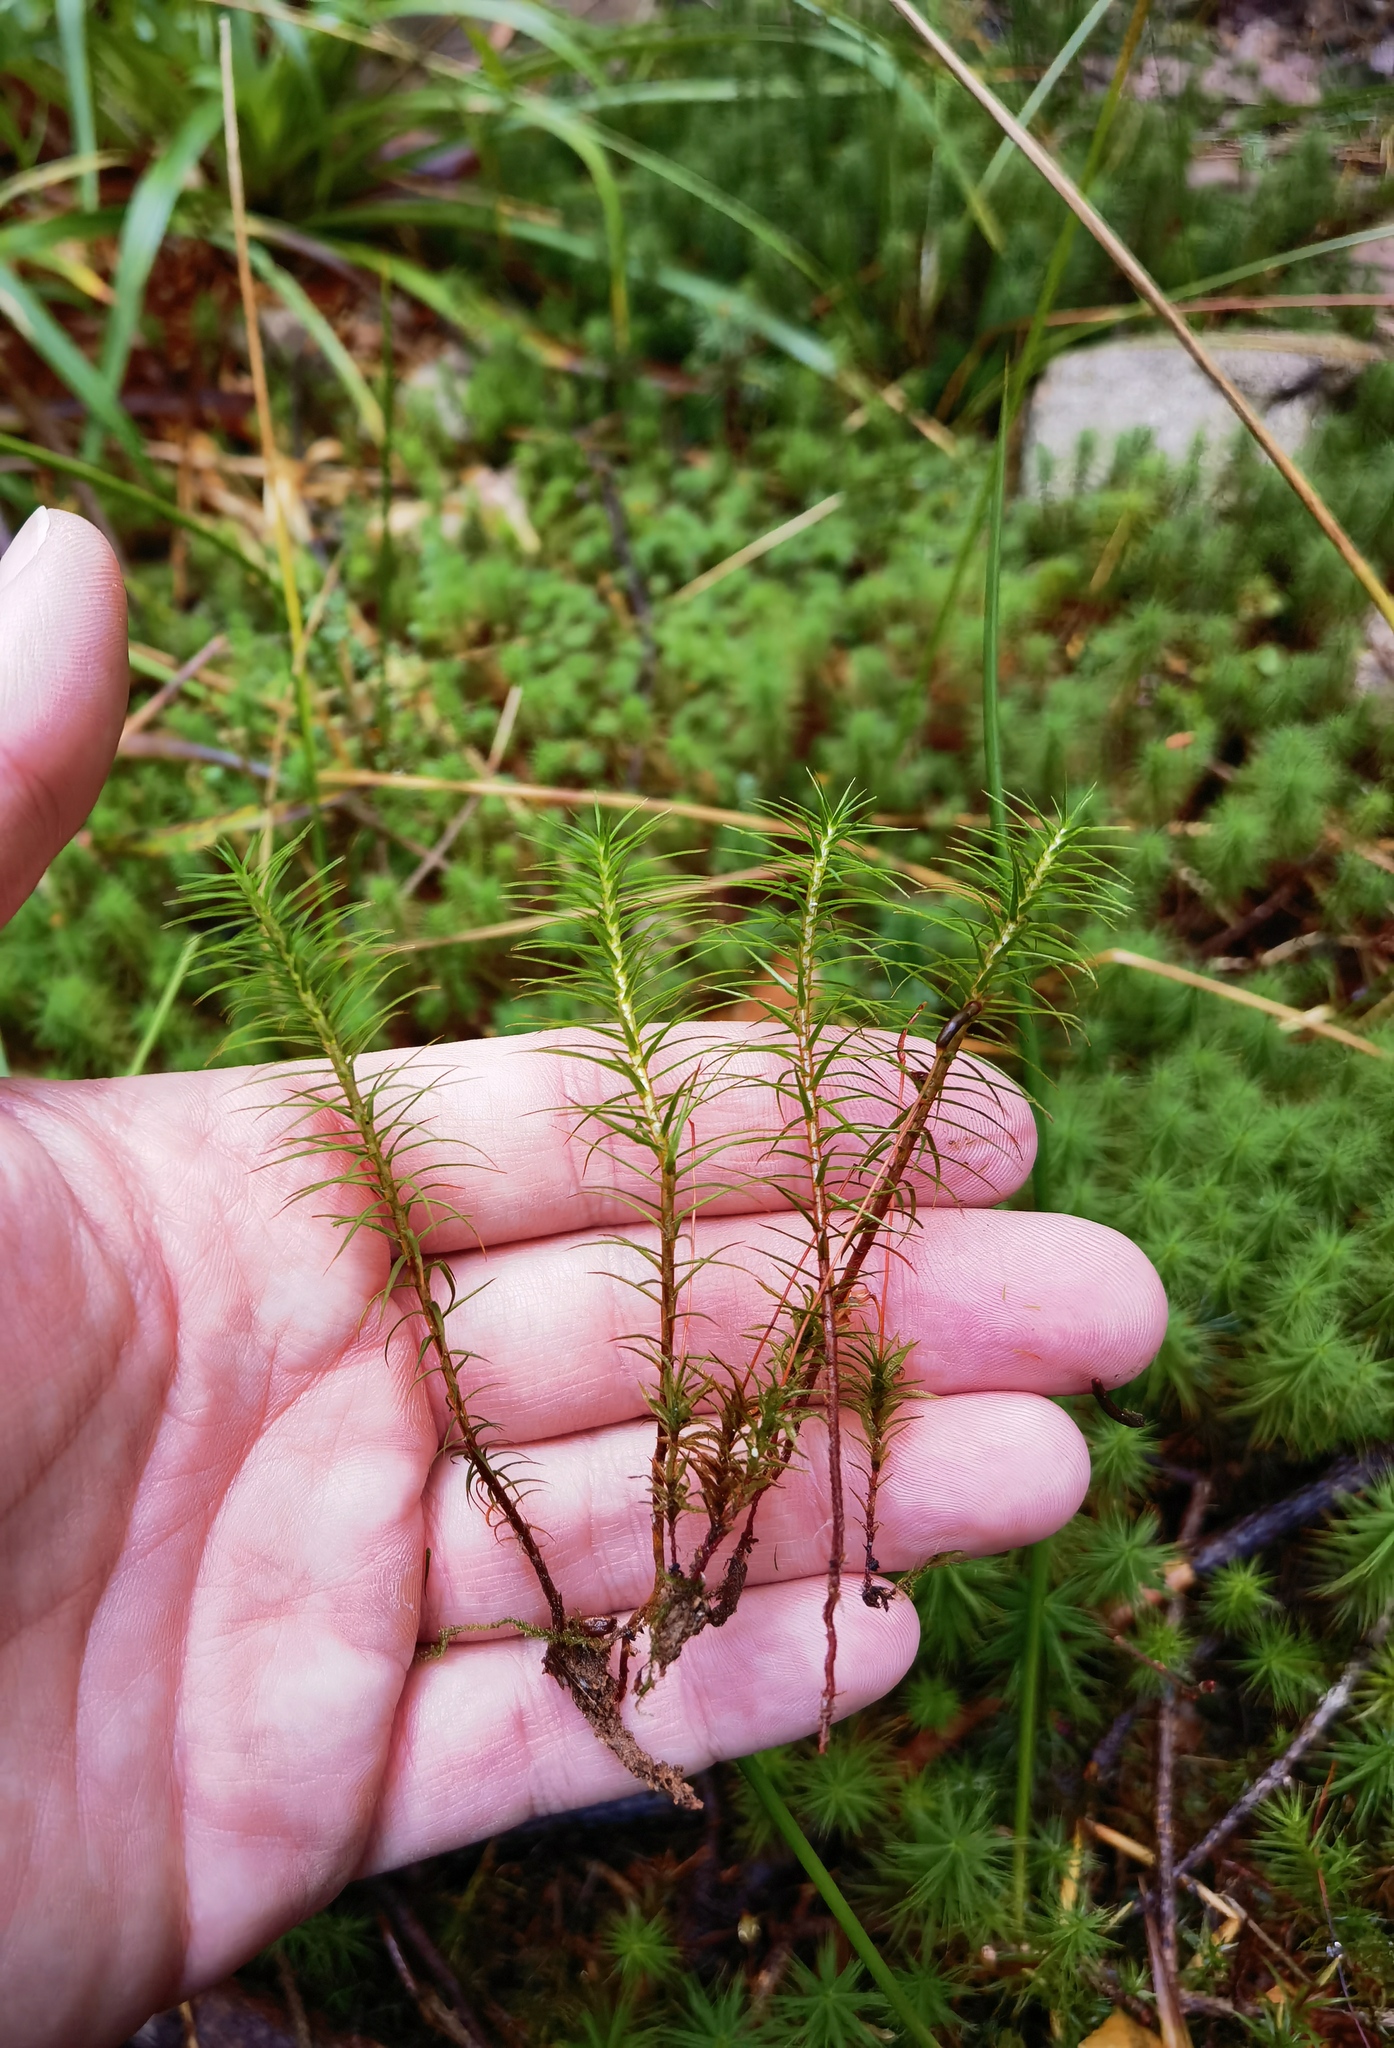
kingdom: Plantae
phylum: Bryophyta
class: Polytrichopsida
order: Polytrichales
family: Polytrichaceae
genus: Polytrichum
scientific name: Polytrichum commune
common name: Common haircap
